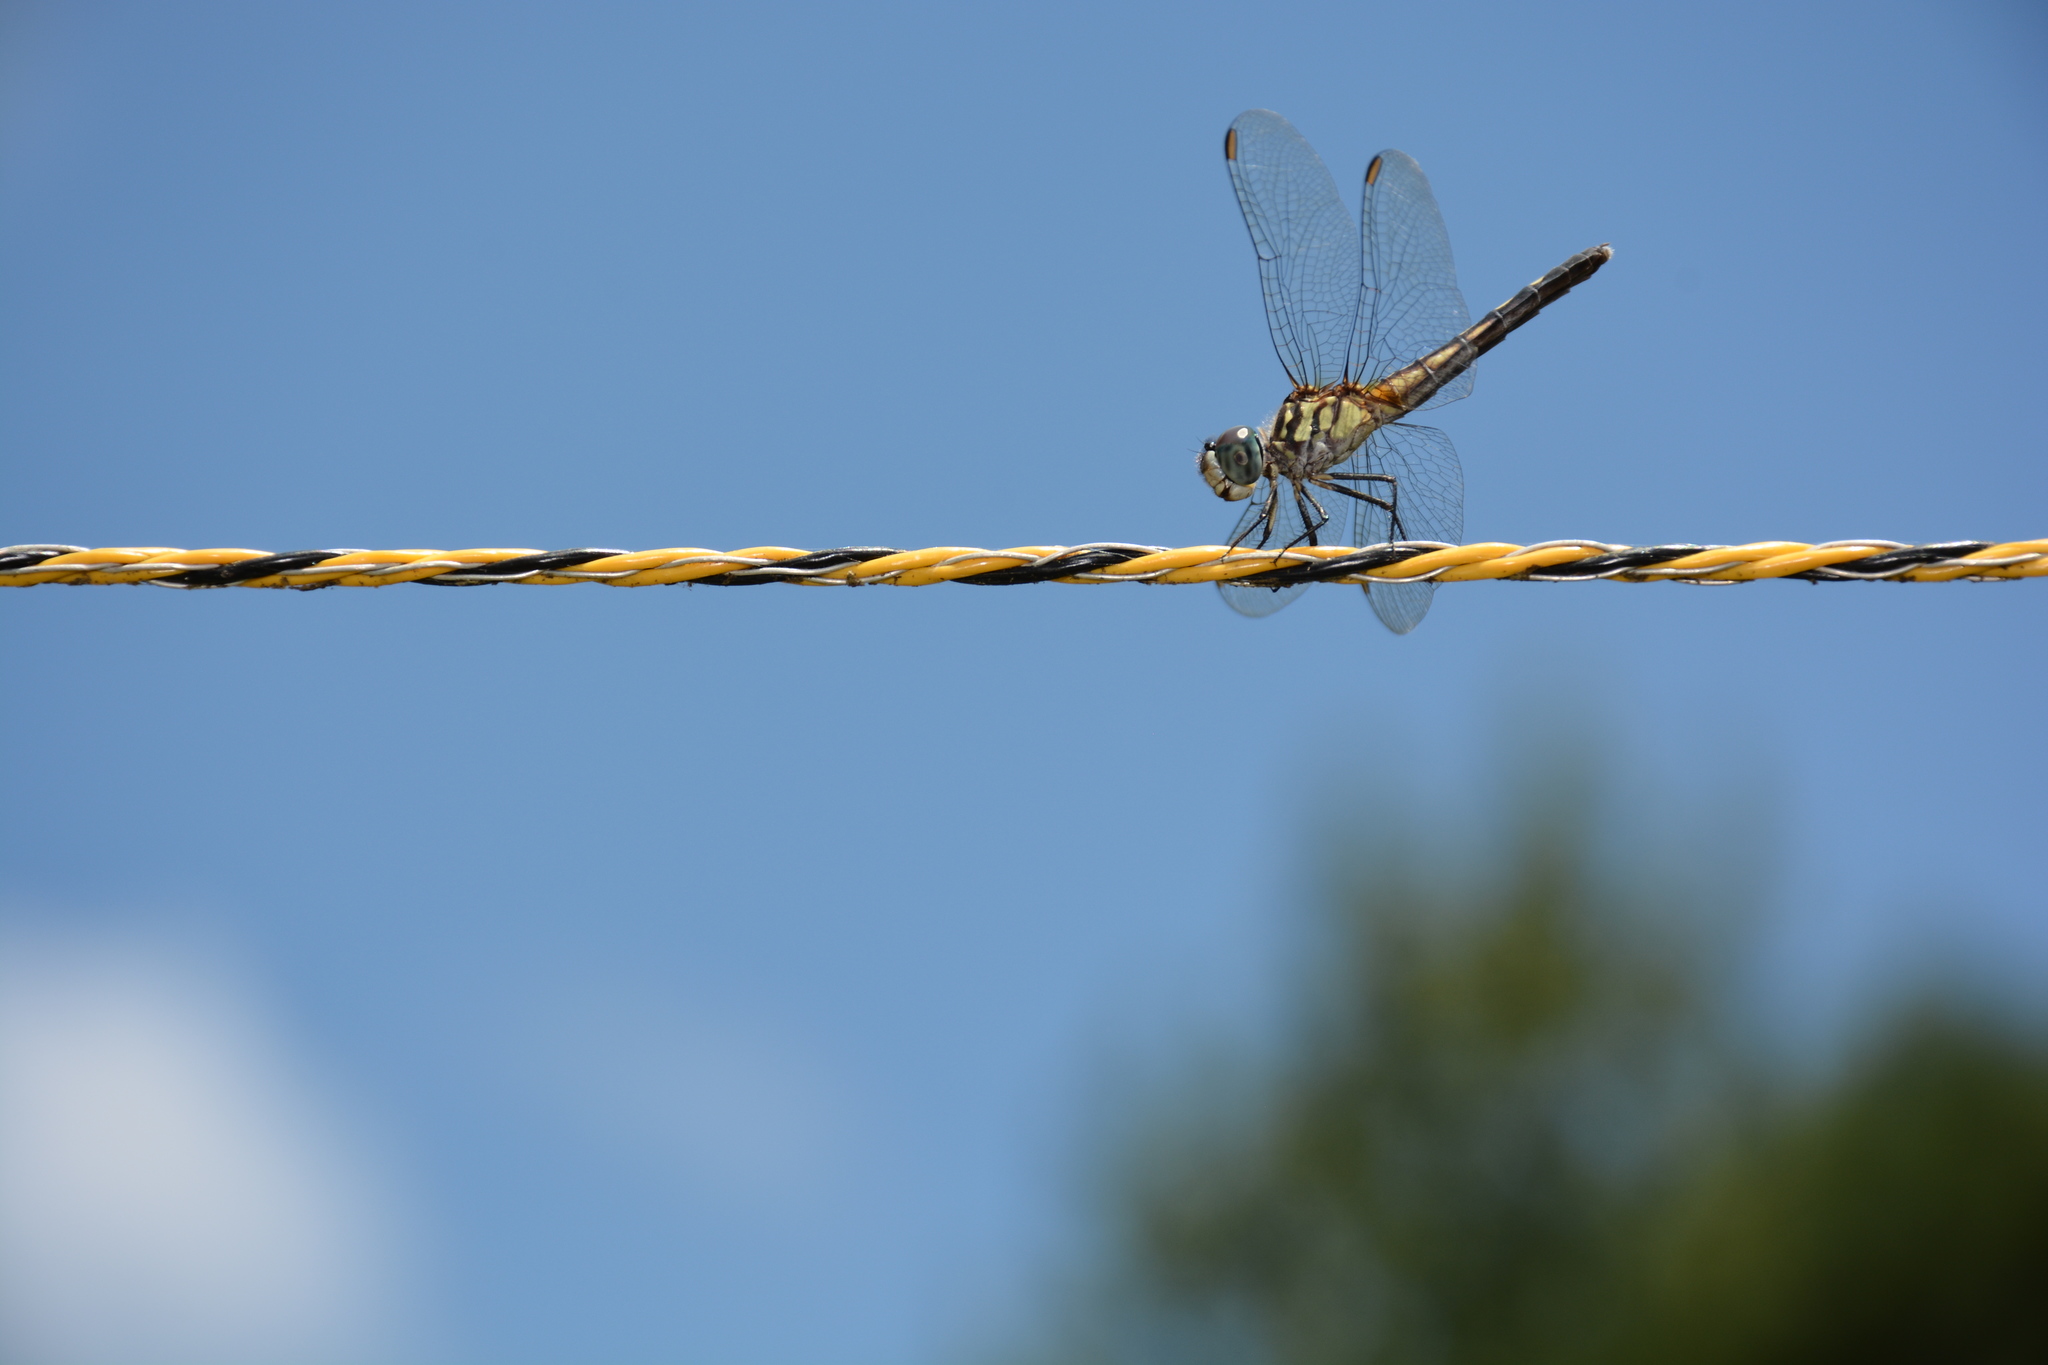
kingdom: Animalia
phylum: Arthropoda
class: Insecta
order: Odonata
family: Libellulidae
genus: Pachydiplax
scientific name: Pachydiplax longipennis
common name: Blue dasher
